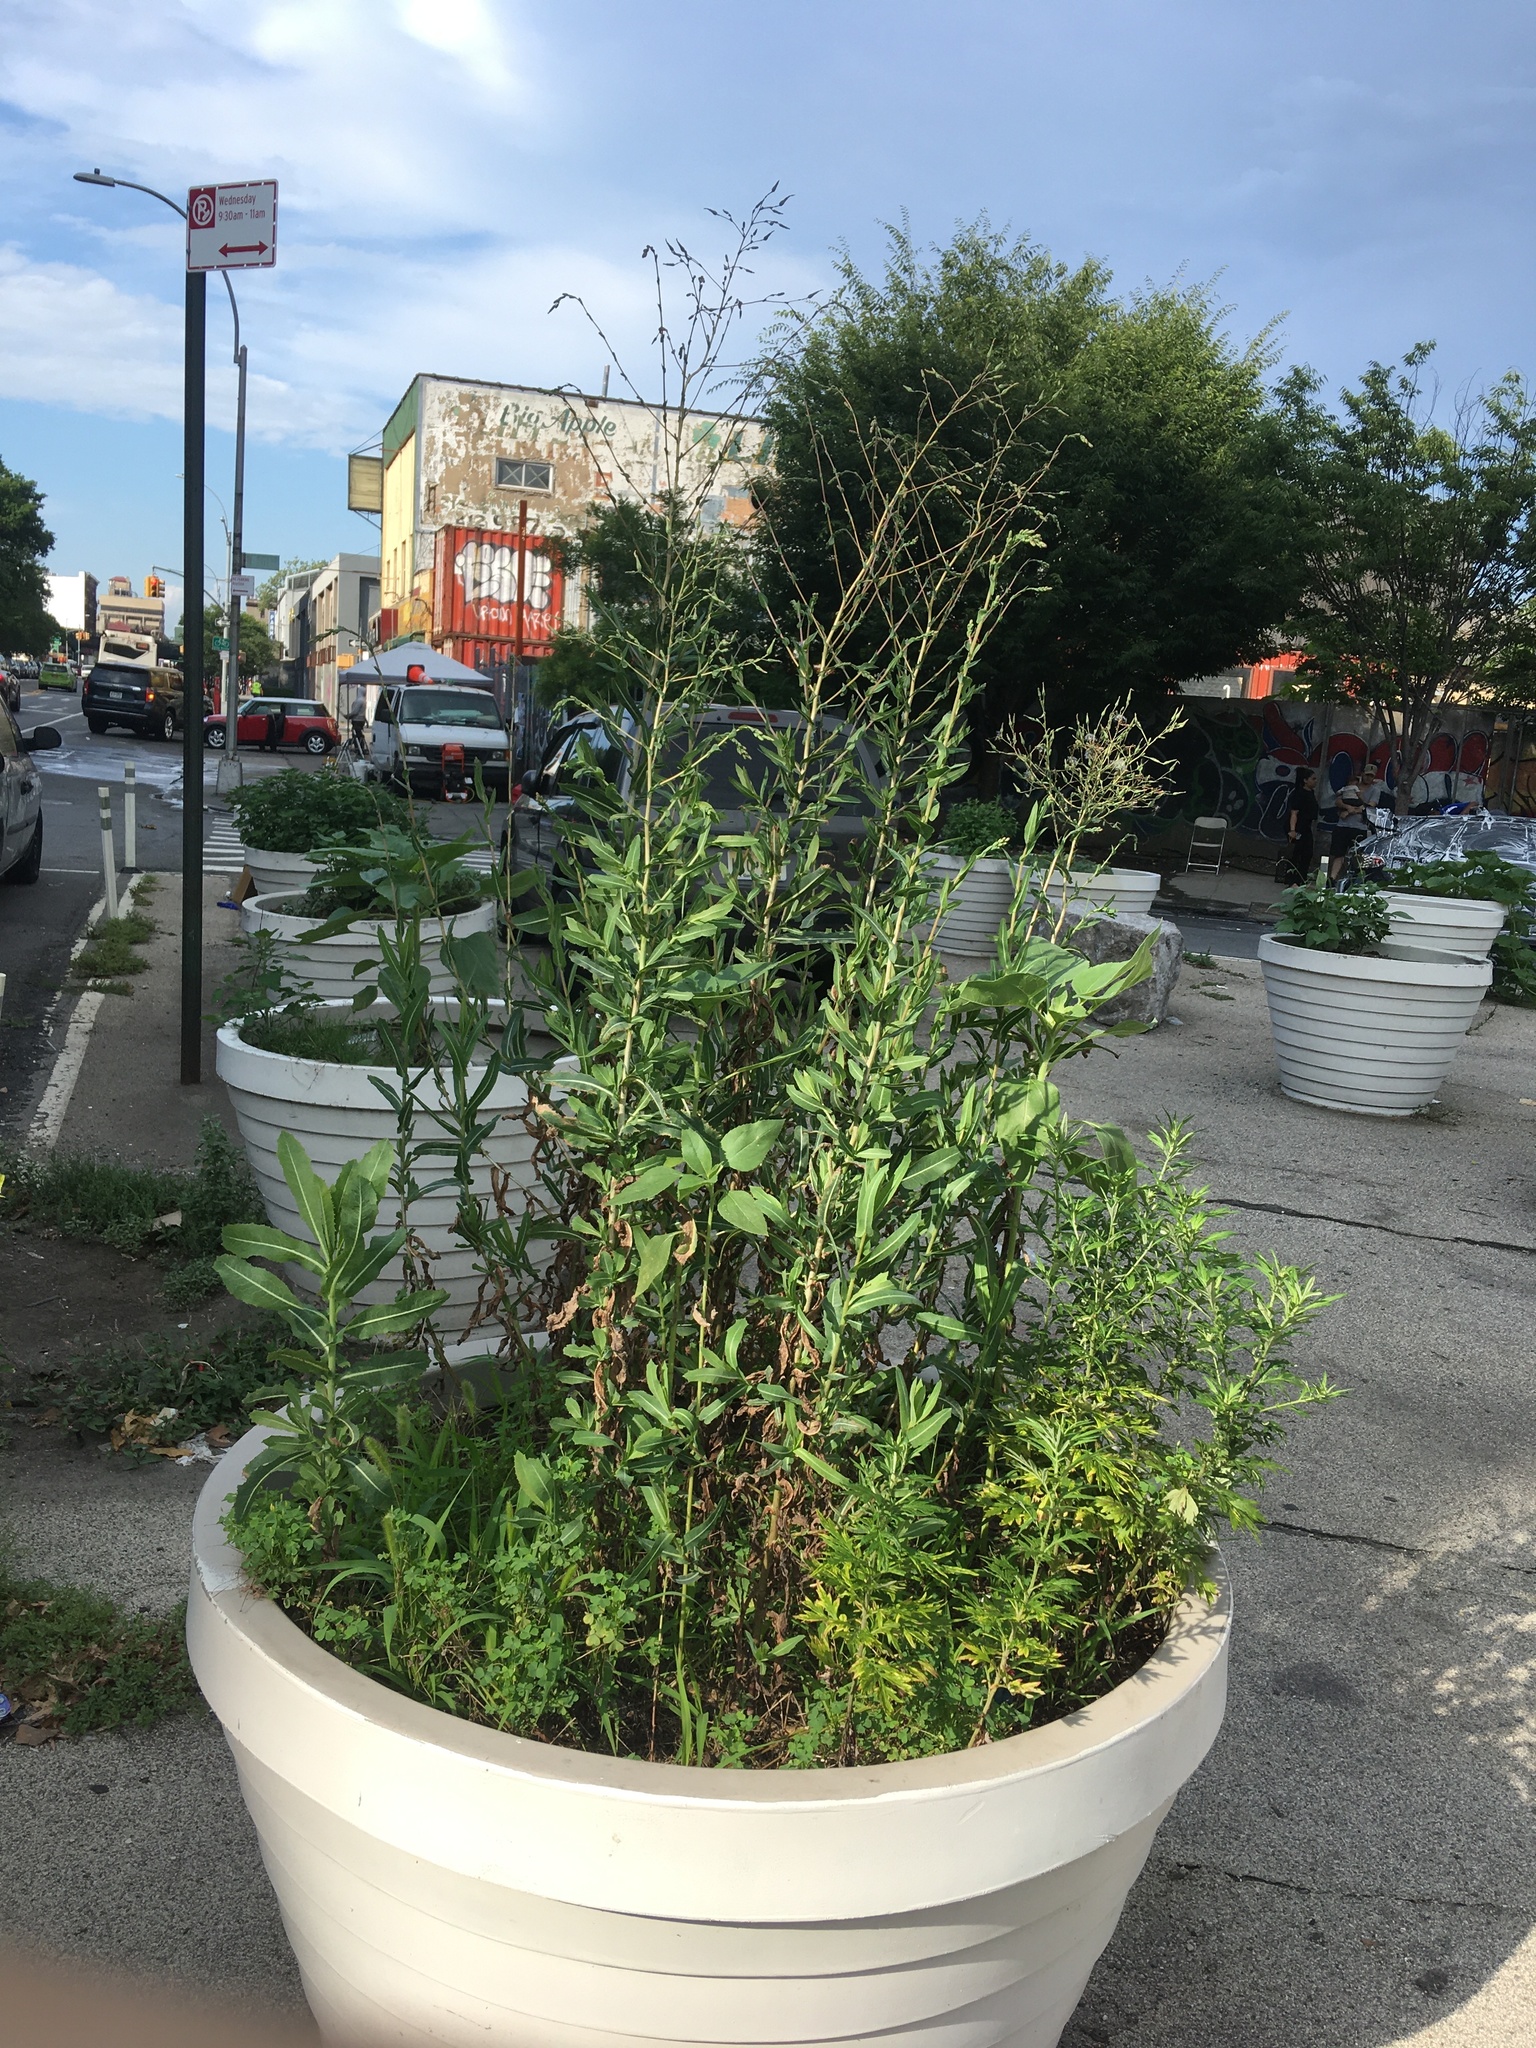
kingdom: Plantae
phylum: Tracheophyta
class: Magnoliopsida
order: Asterales
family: Asteraceae
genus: Lactuca
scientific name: Lactuca serriola
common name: Prickly lettuce
